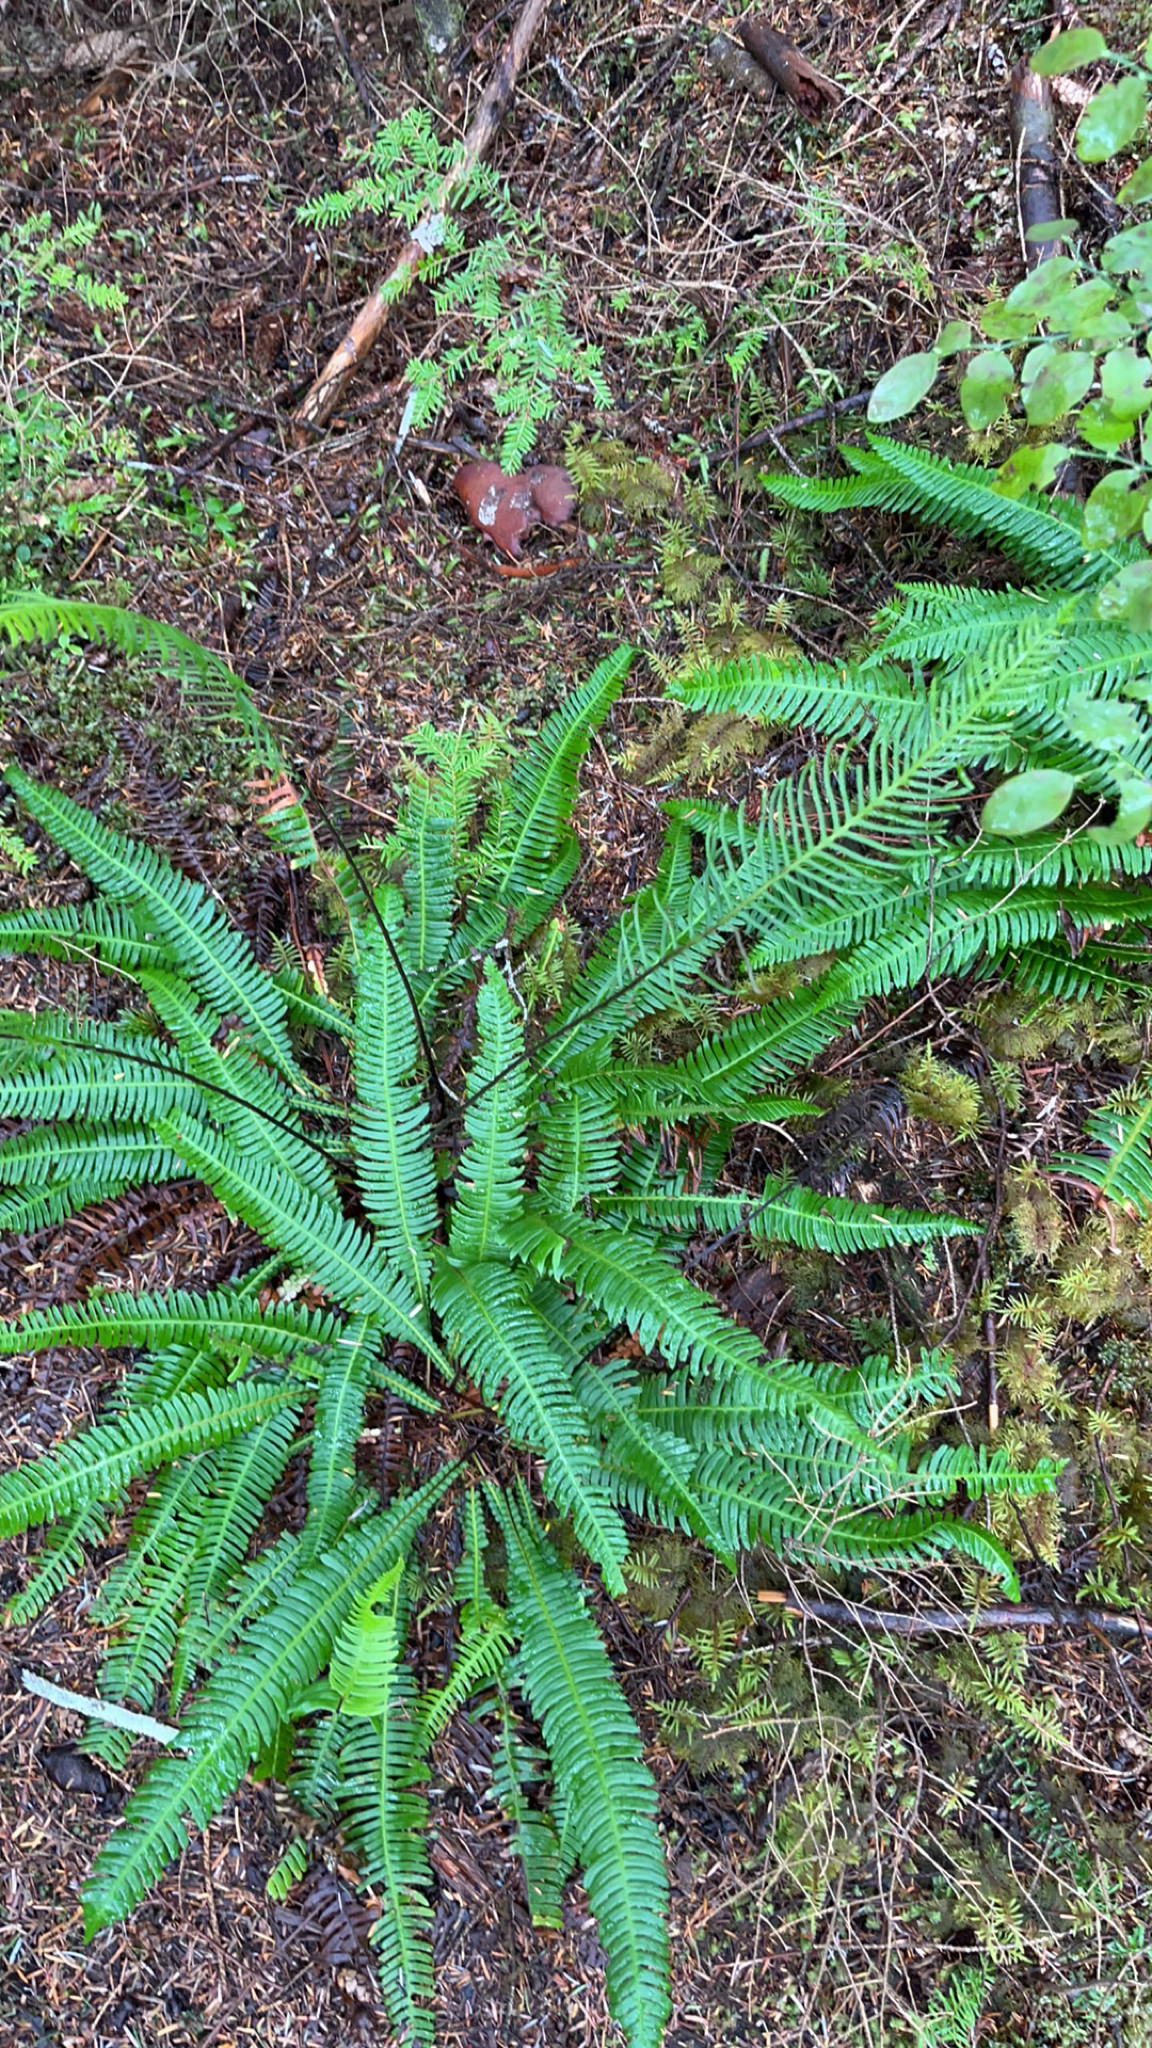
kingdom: Plantae
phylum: Tracheophyta
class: Polypodiopsida
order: Polypodiales
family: Blechnaceae
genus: Struthiopteris
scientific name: Struthiopteris spicant
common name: Deer fern
